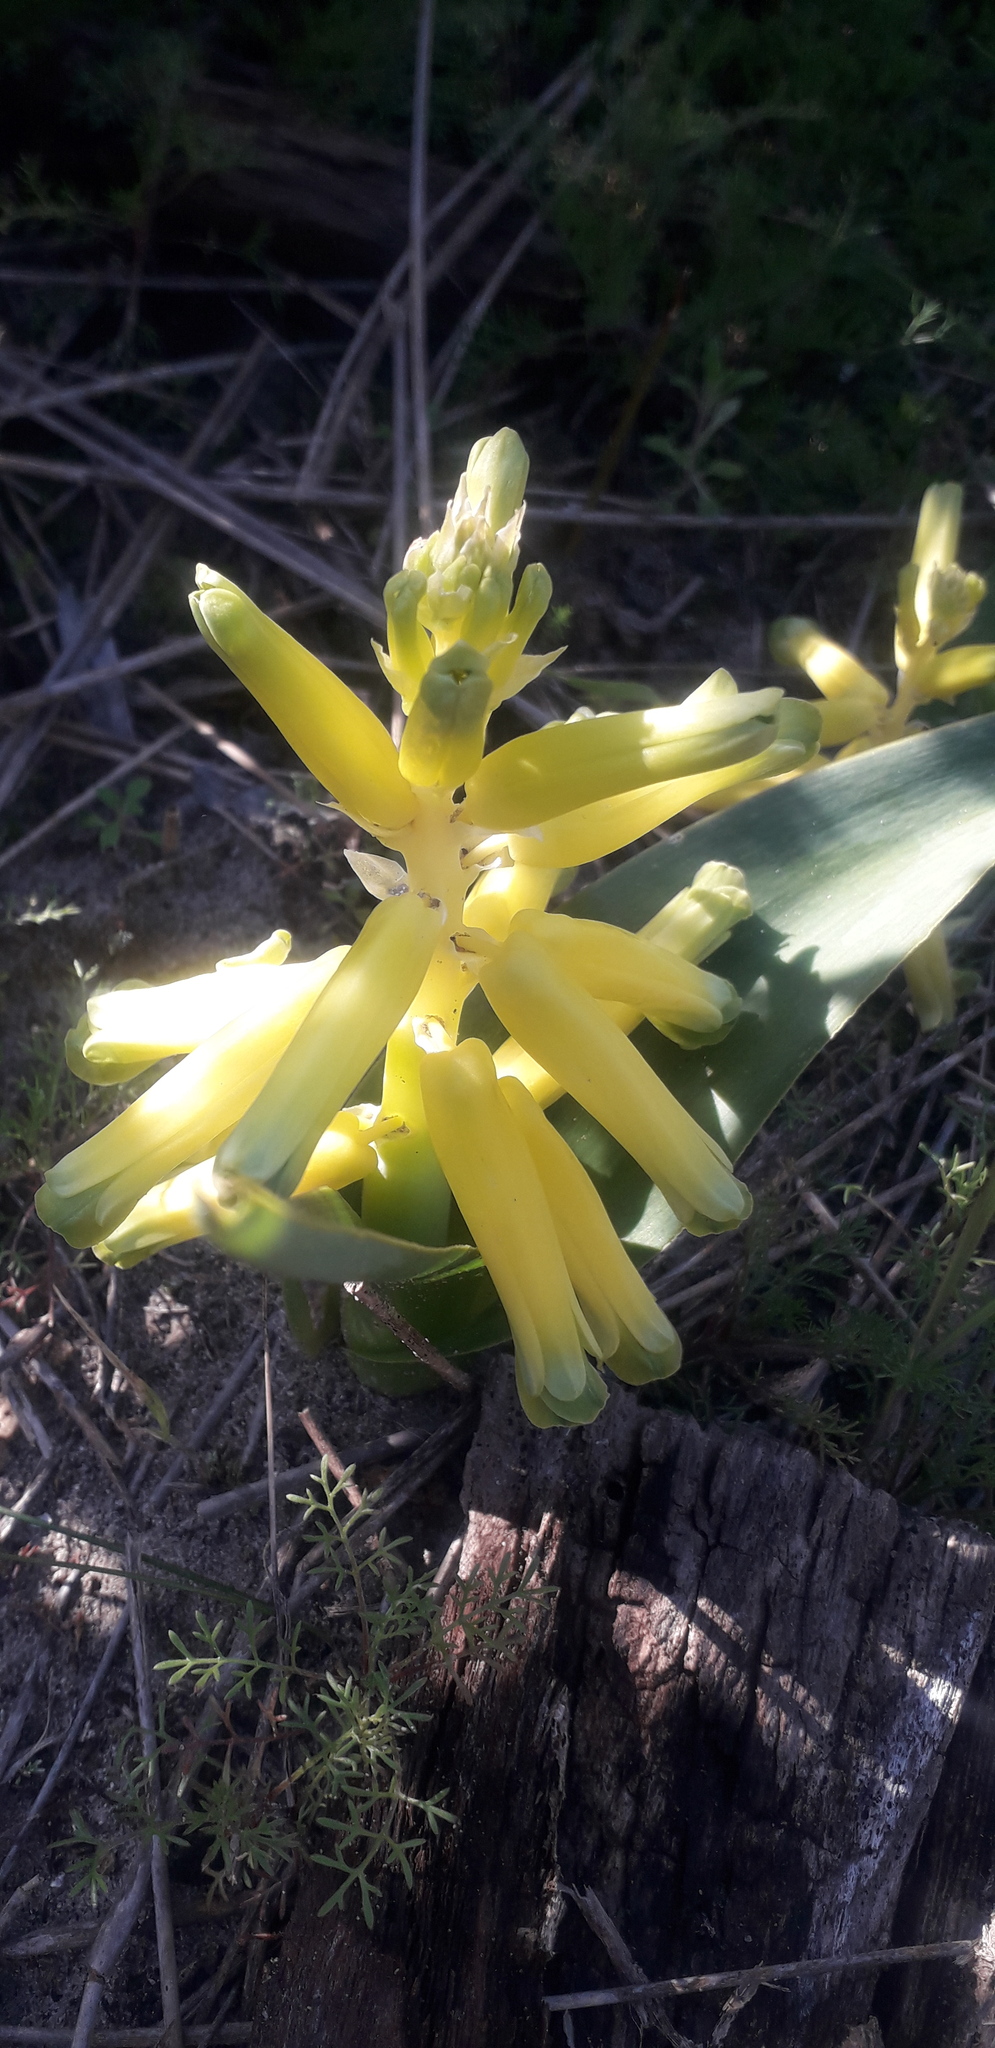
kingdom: Plantae
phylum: Tracheophyta
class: Liliopsida
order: Asparagales
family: Asparagaceae
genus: Lachenalia
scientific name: Lachenalia bulbifera
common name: Red lachenalia
